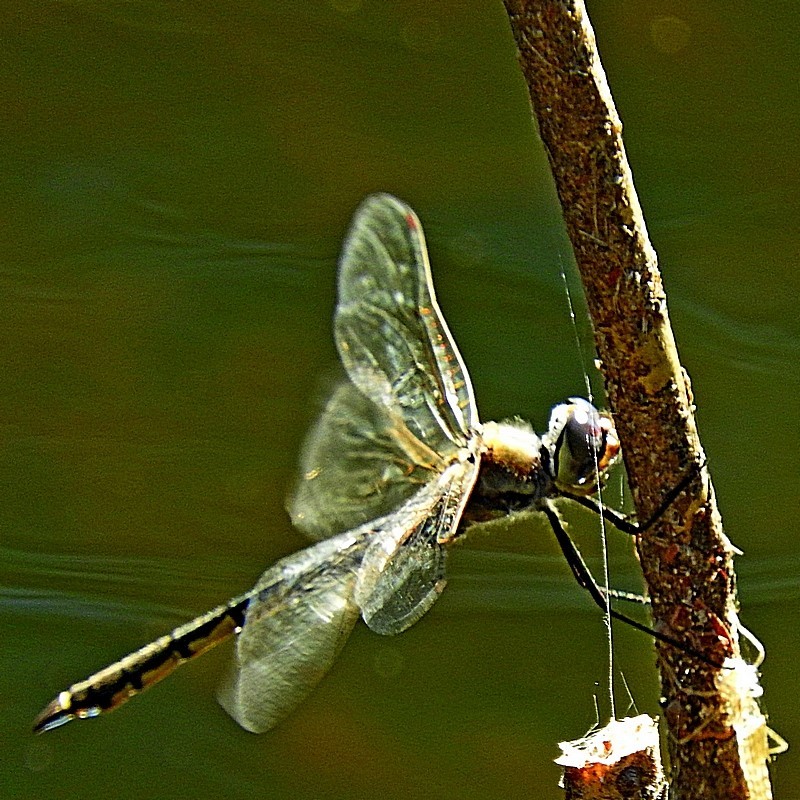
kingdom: Animalia
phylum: Arthropoda
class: Insecta
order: Odonata
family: Corduliidae
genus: Hemicordulia
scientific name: Hemicordulia tau
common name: Tau emerald
